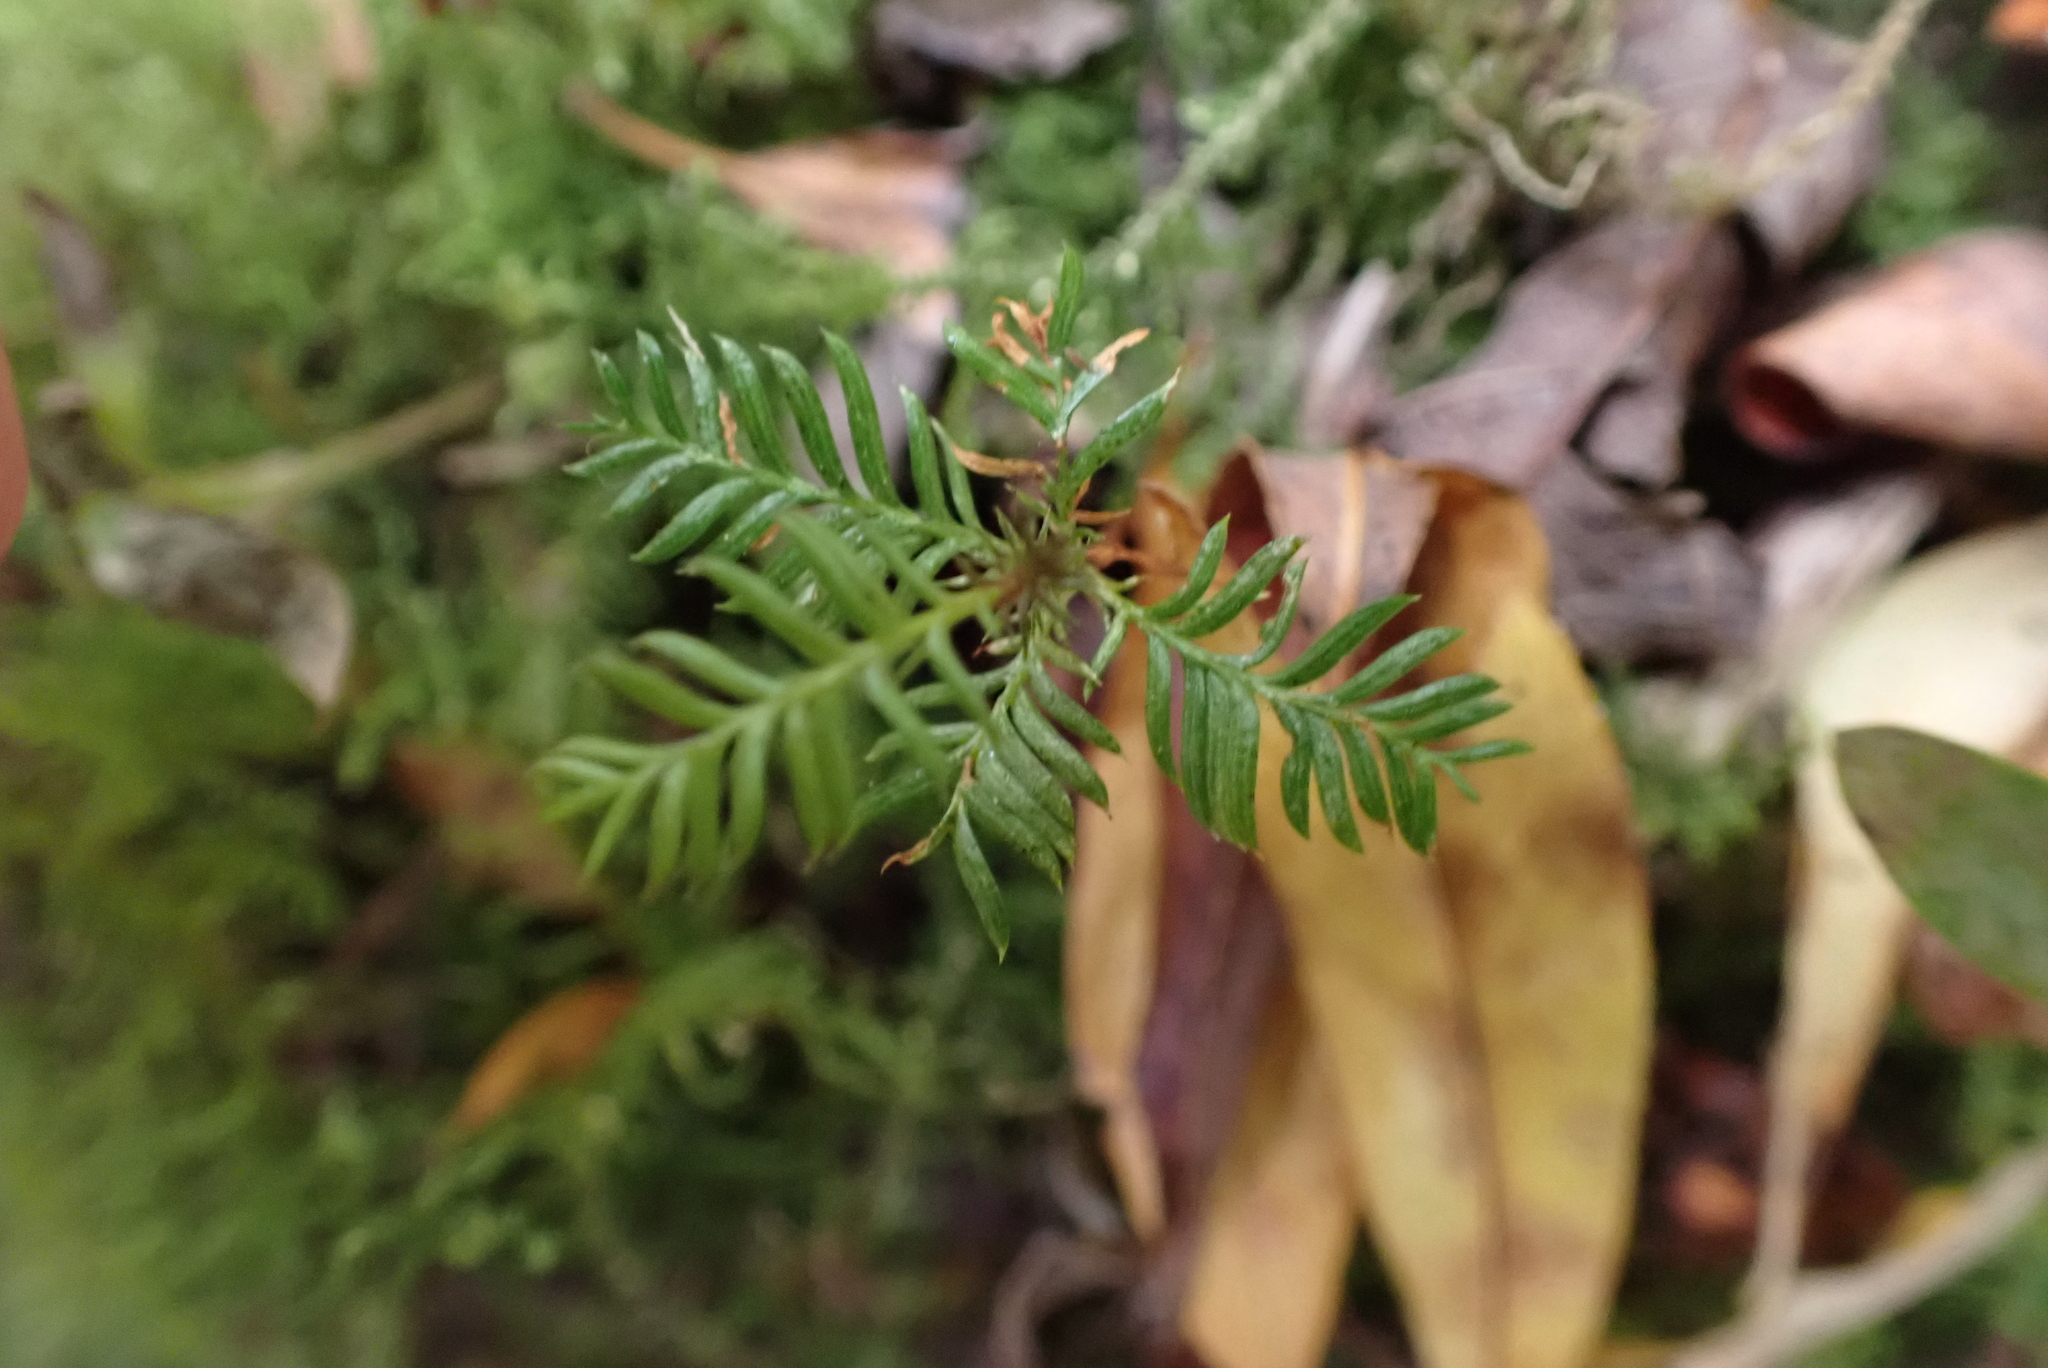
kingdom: Plantae
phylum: Tracheophyta
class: Pinopsida
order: Pinales
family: Podocarpaceae
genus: Dacrycarpus
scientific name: Dacrycarpus dacrydioides
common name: White pine
